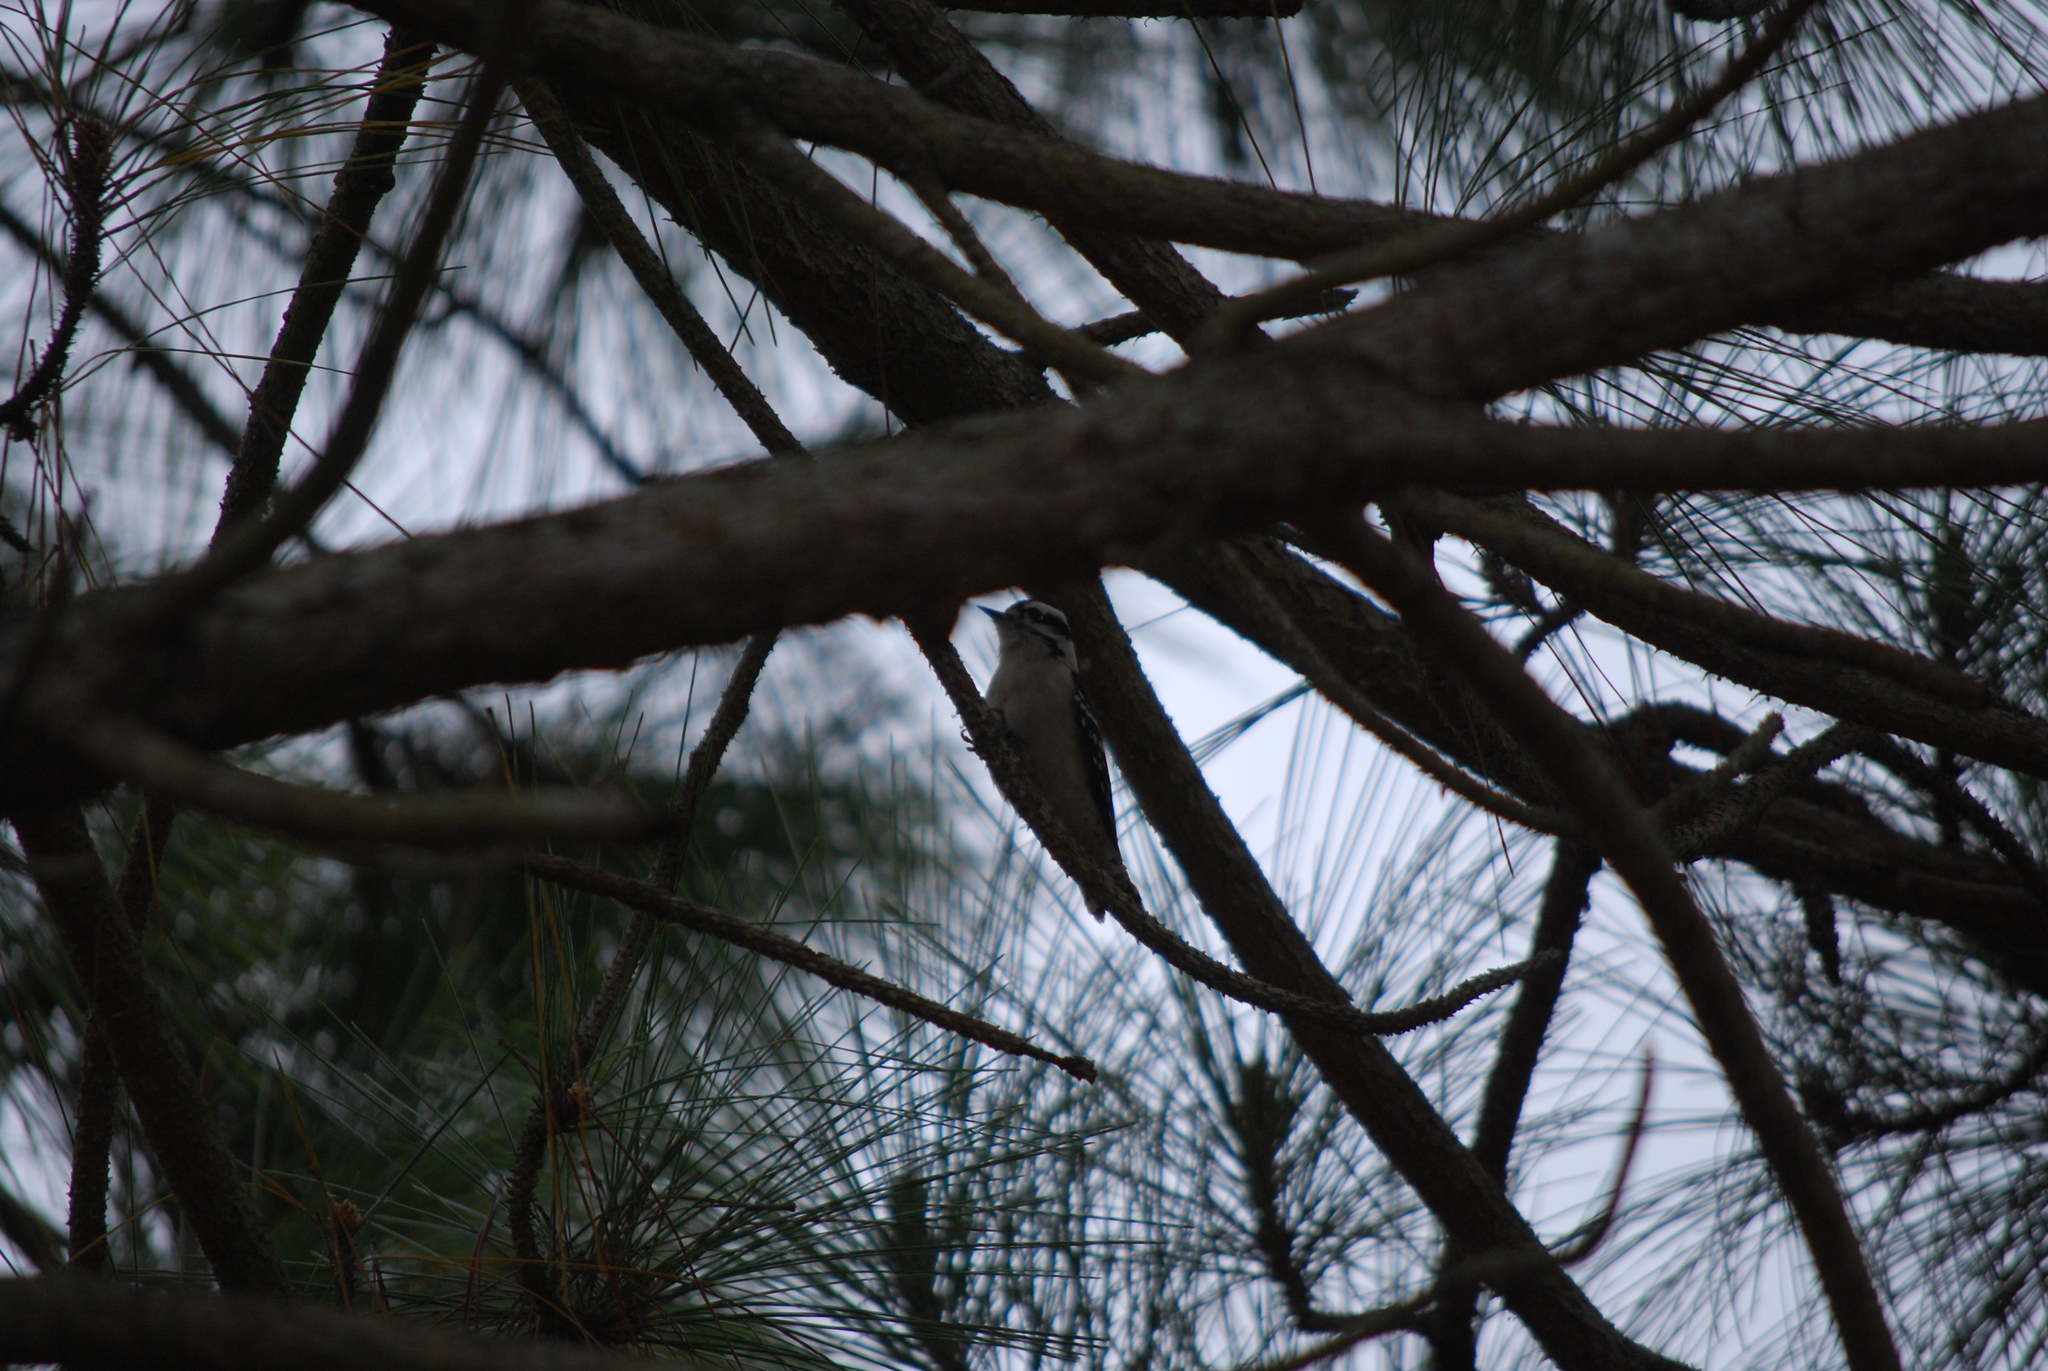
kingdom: Animalia
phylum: Chordata
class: Aves
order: Piciformes
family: Picidae
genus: Dryobates
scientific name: Dryobates pubescens
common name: Downy woodpecker
